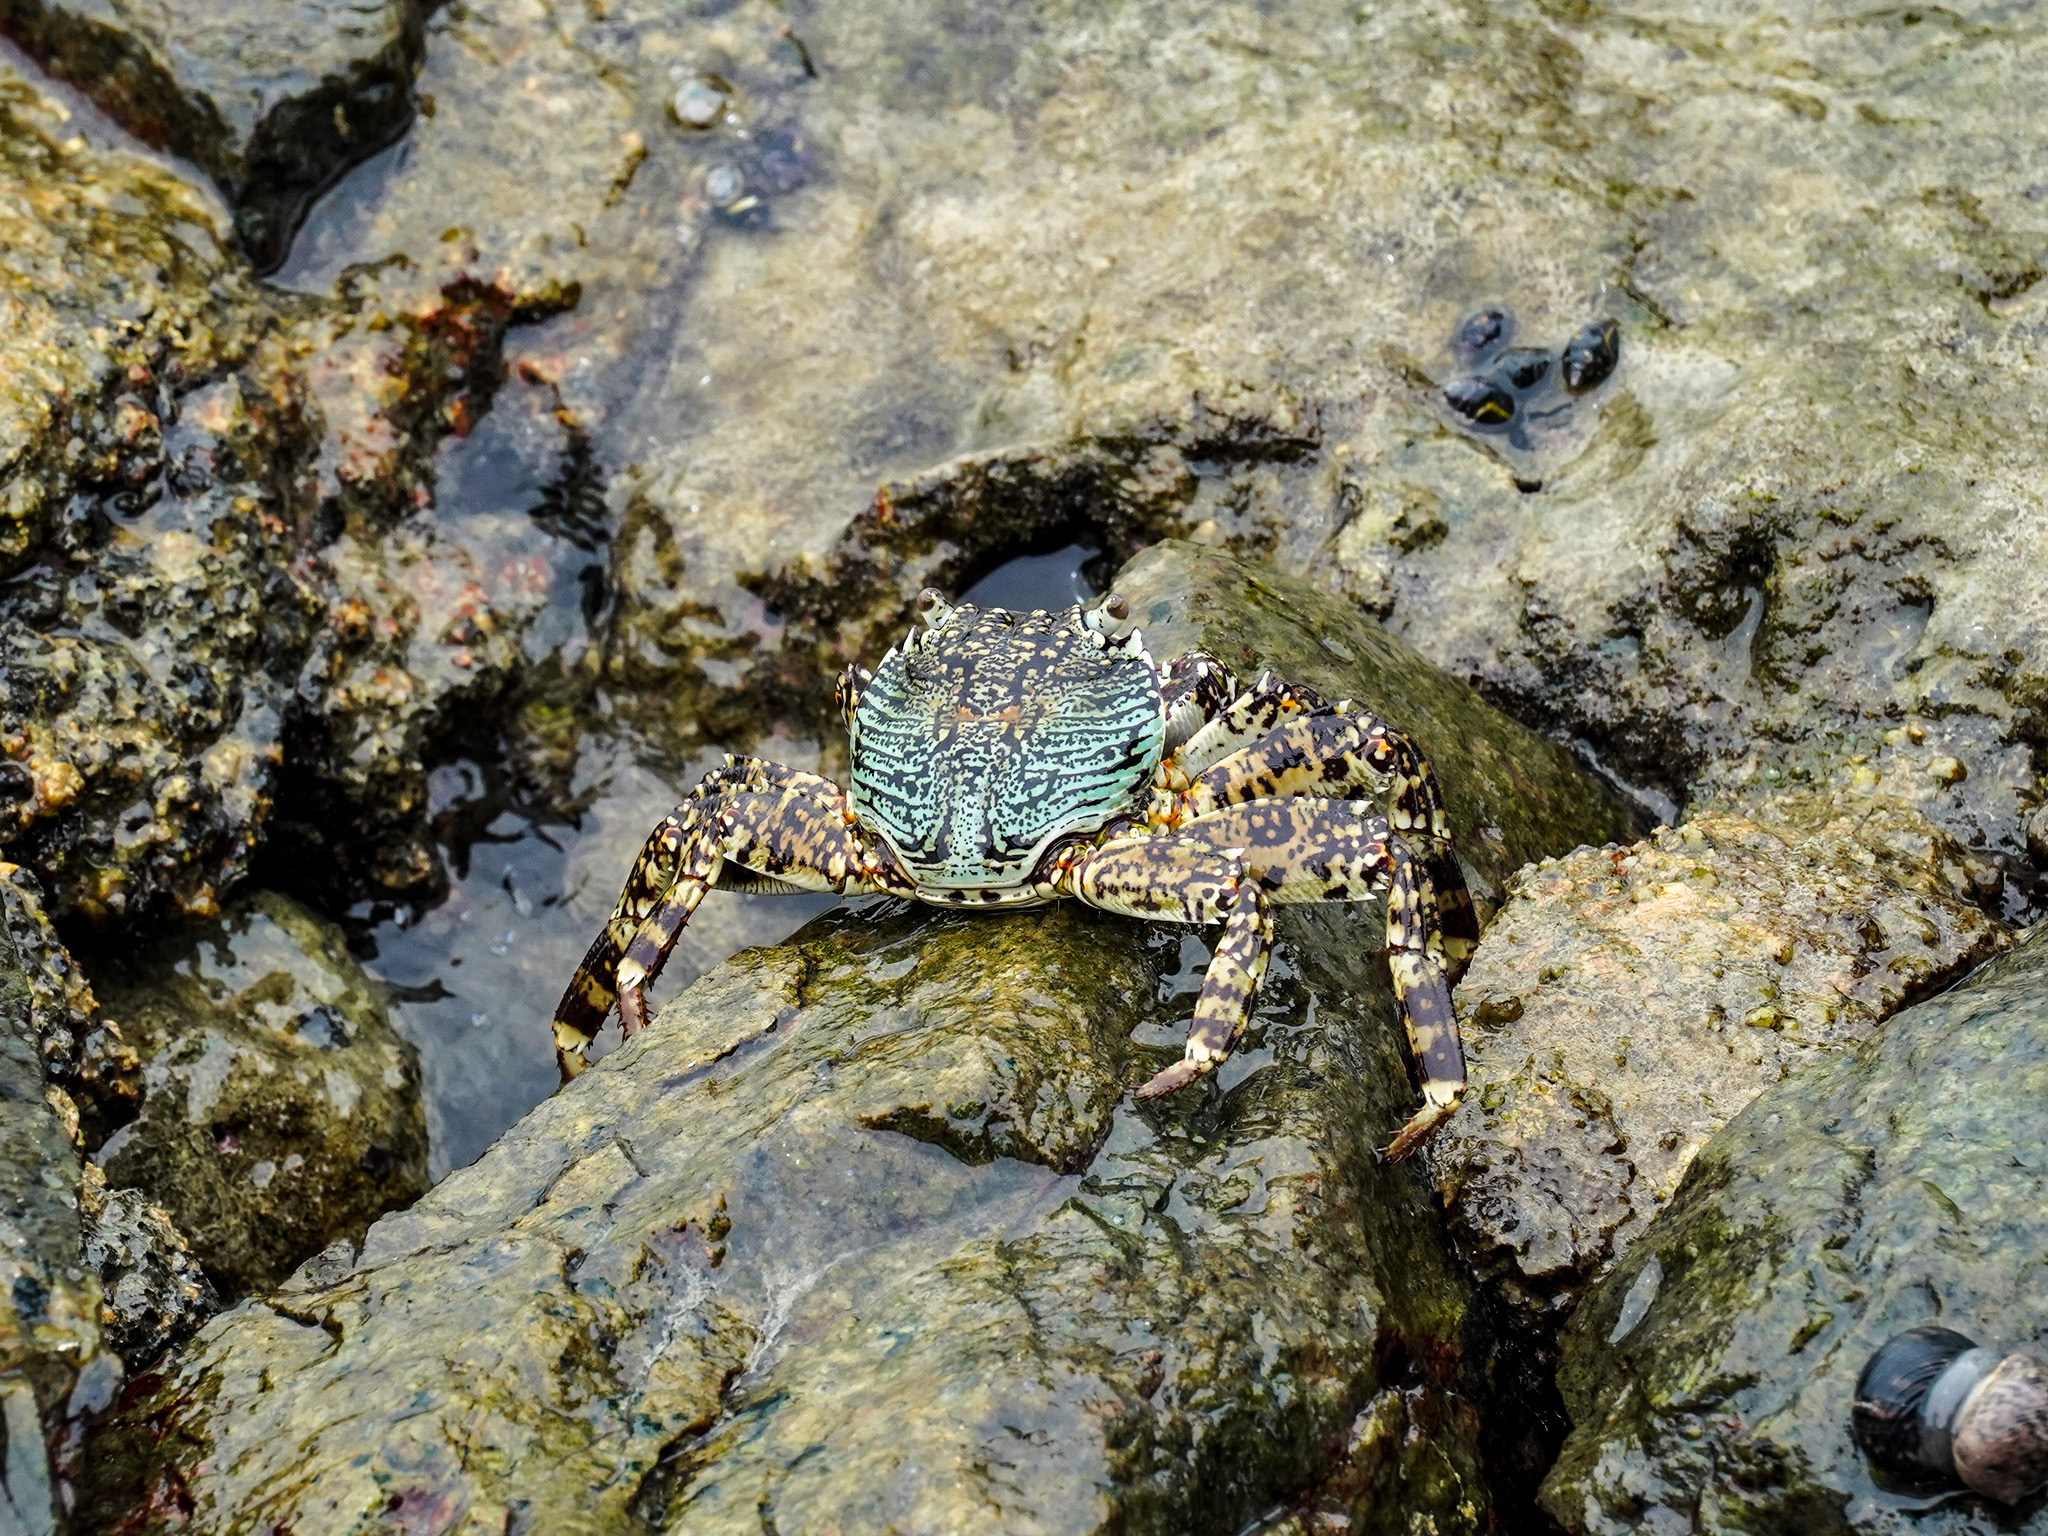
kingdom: Animalia
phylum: Arthropoda
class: Malacostraca
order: Decapoda
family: Grapsidae
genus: Grapsus
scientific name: Grapsus albolineatus
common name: Mottled lightfoot crab
